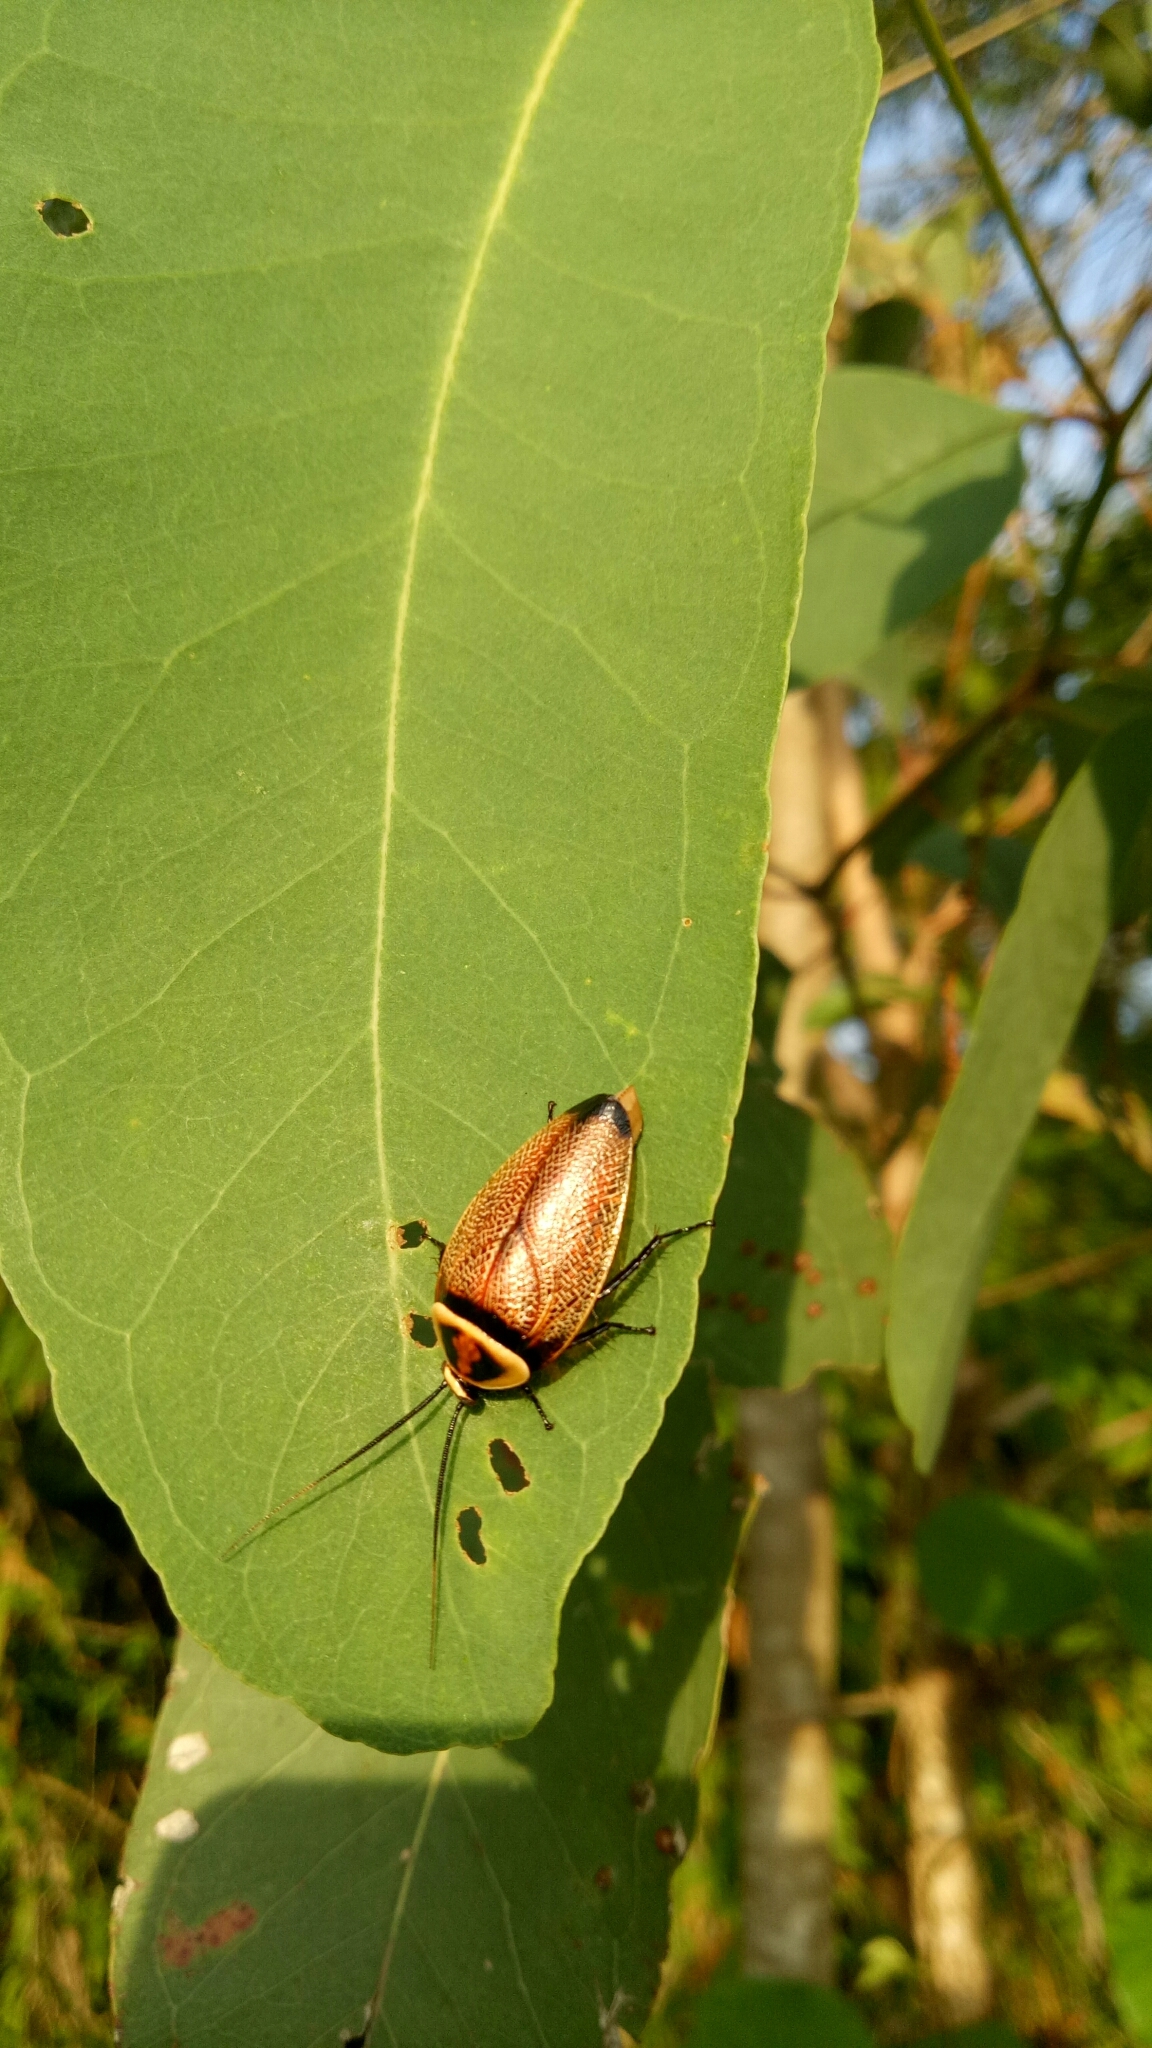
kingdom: Animalia
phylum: Arthropoda
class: Insecta
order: Blattodea
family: Ectobiidae
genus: Ellipsidion
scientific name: Ellipsidion reticulatum
